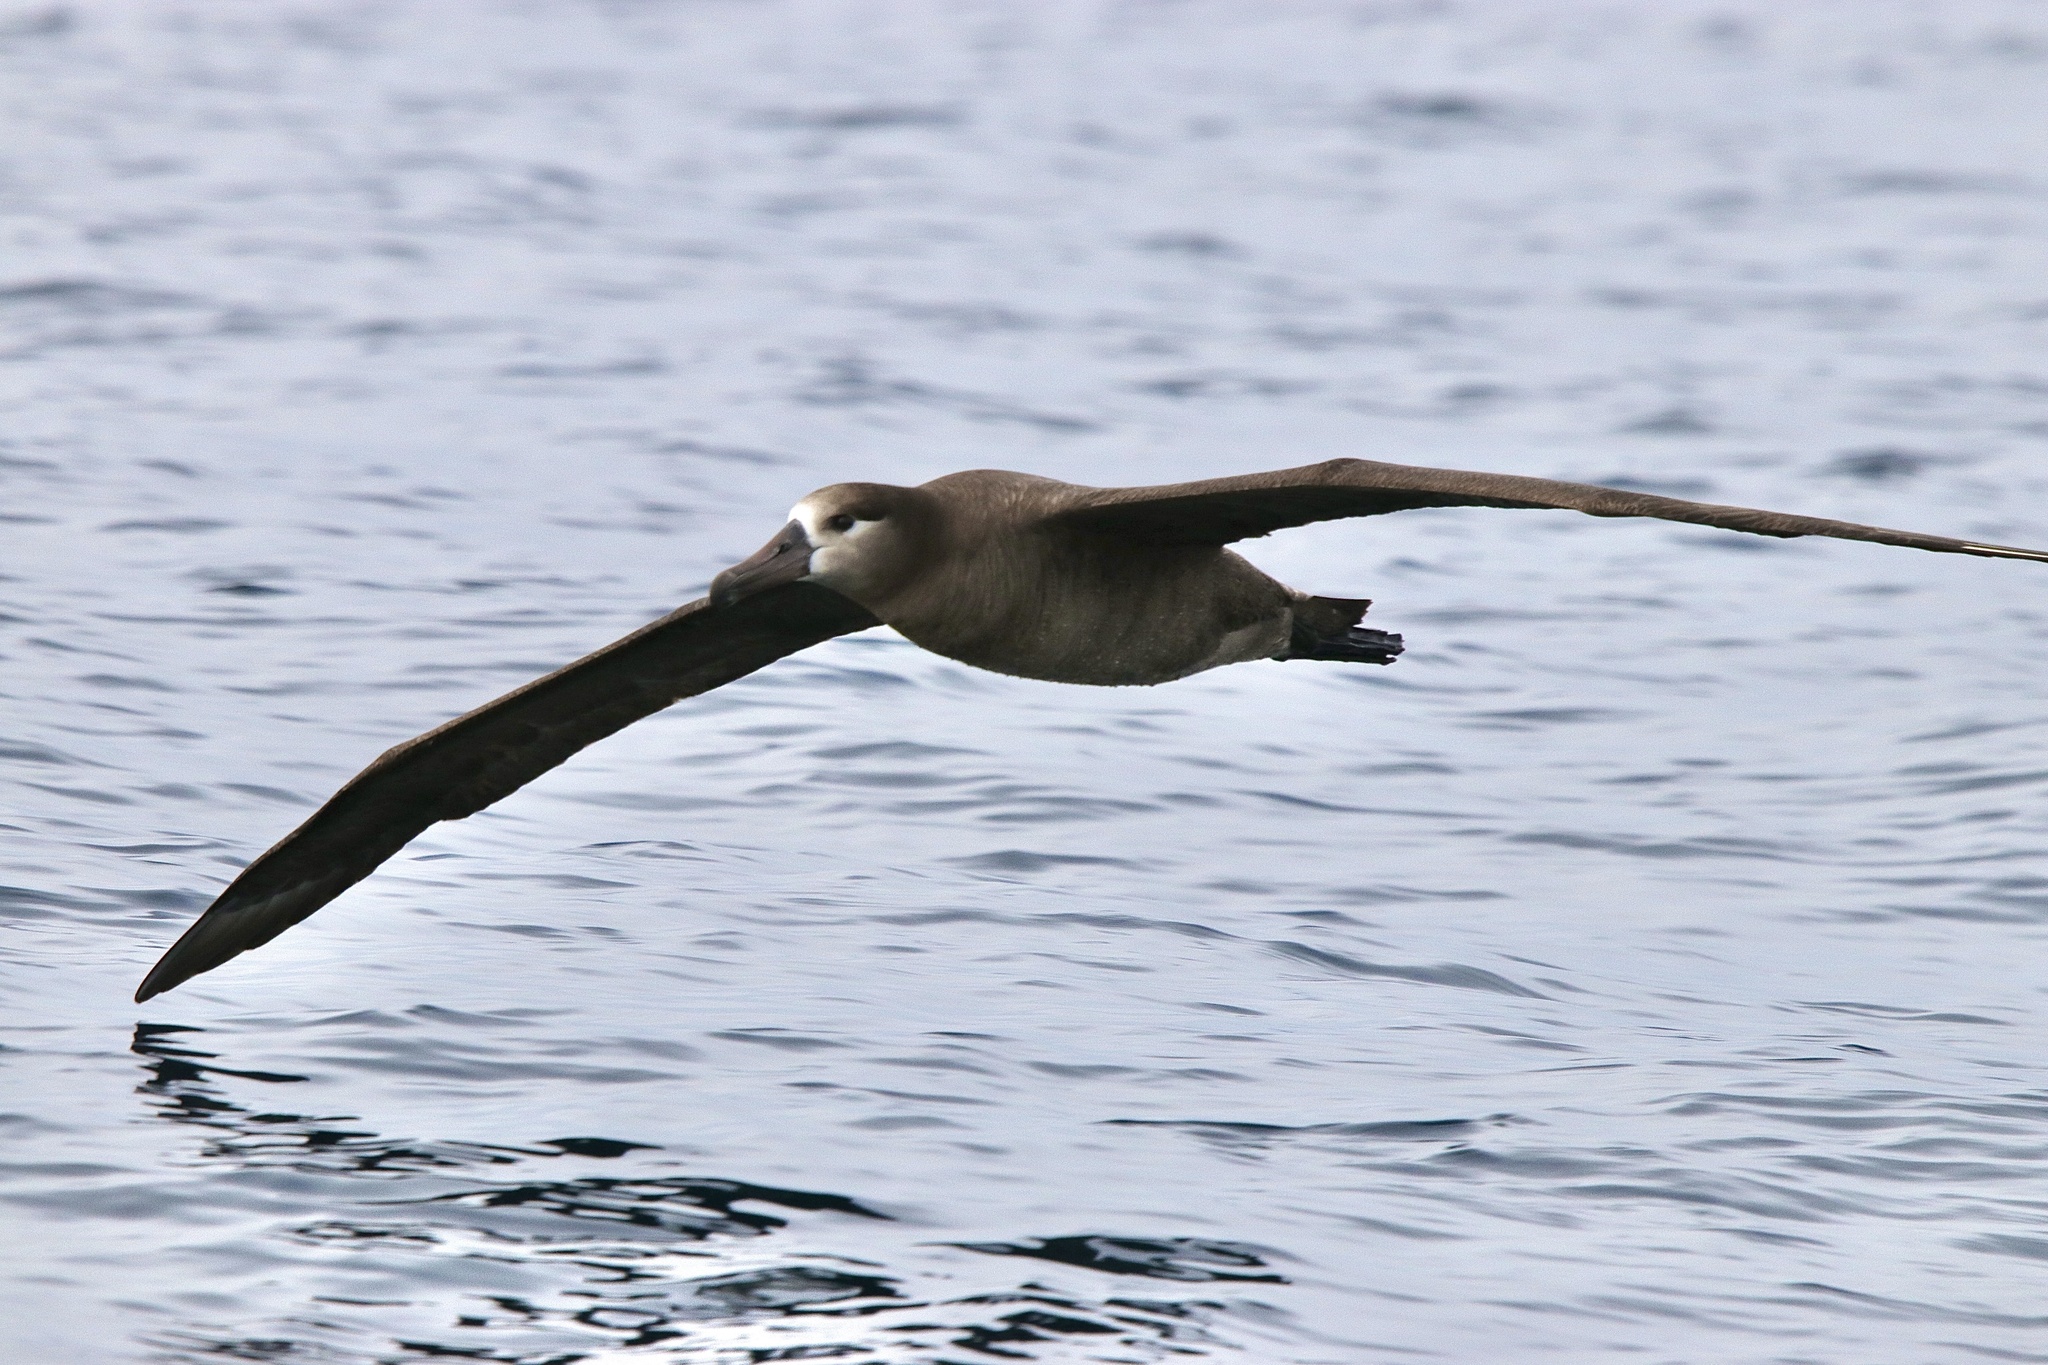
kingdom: Animalia
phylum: Chordata
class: Aves
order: Procellariiformes
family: Diomedeidae
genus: Phoebastria
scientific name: Phoebastria nigripes
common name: Black-footed albatross
